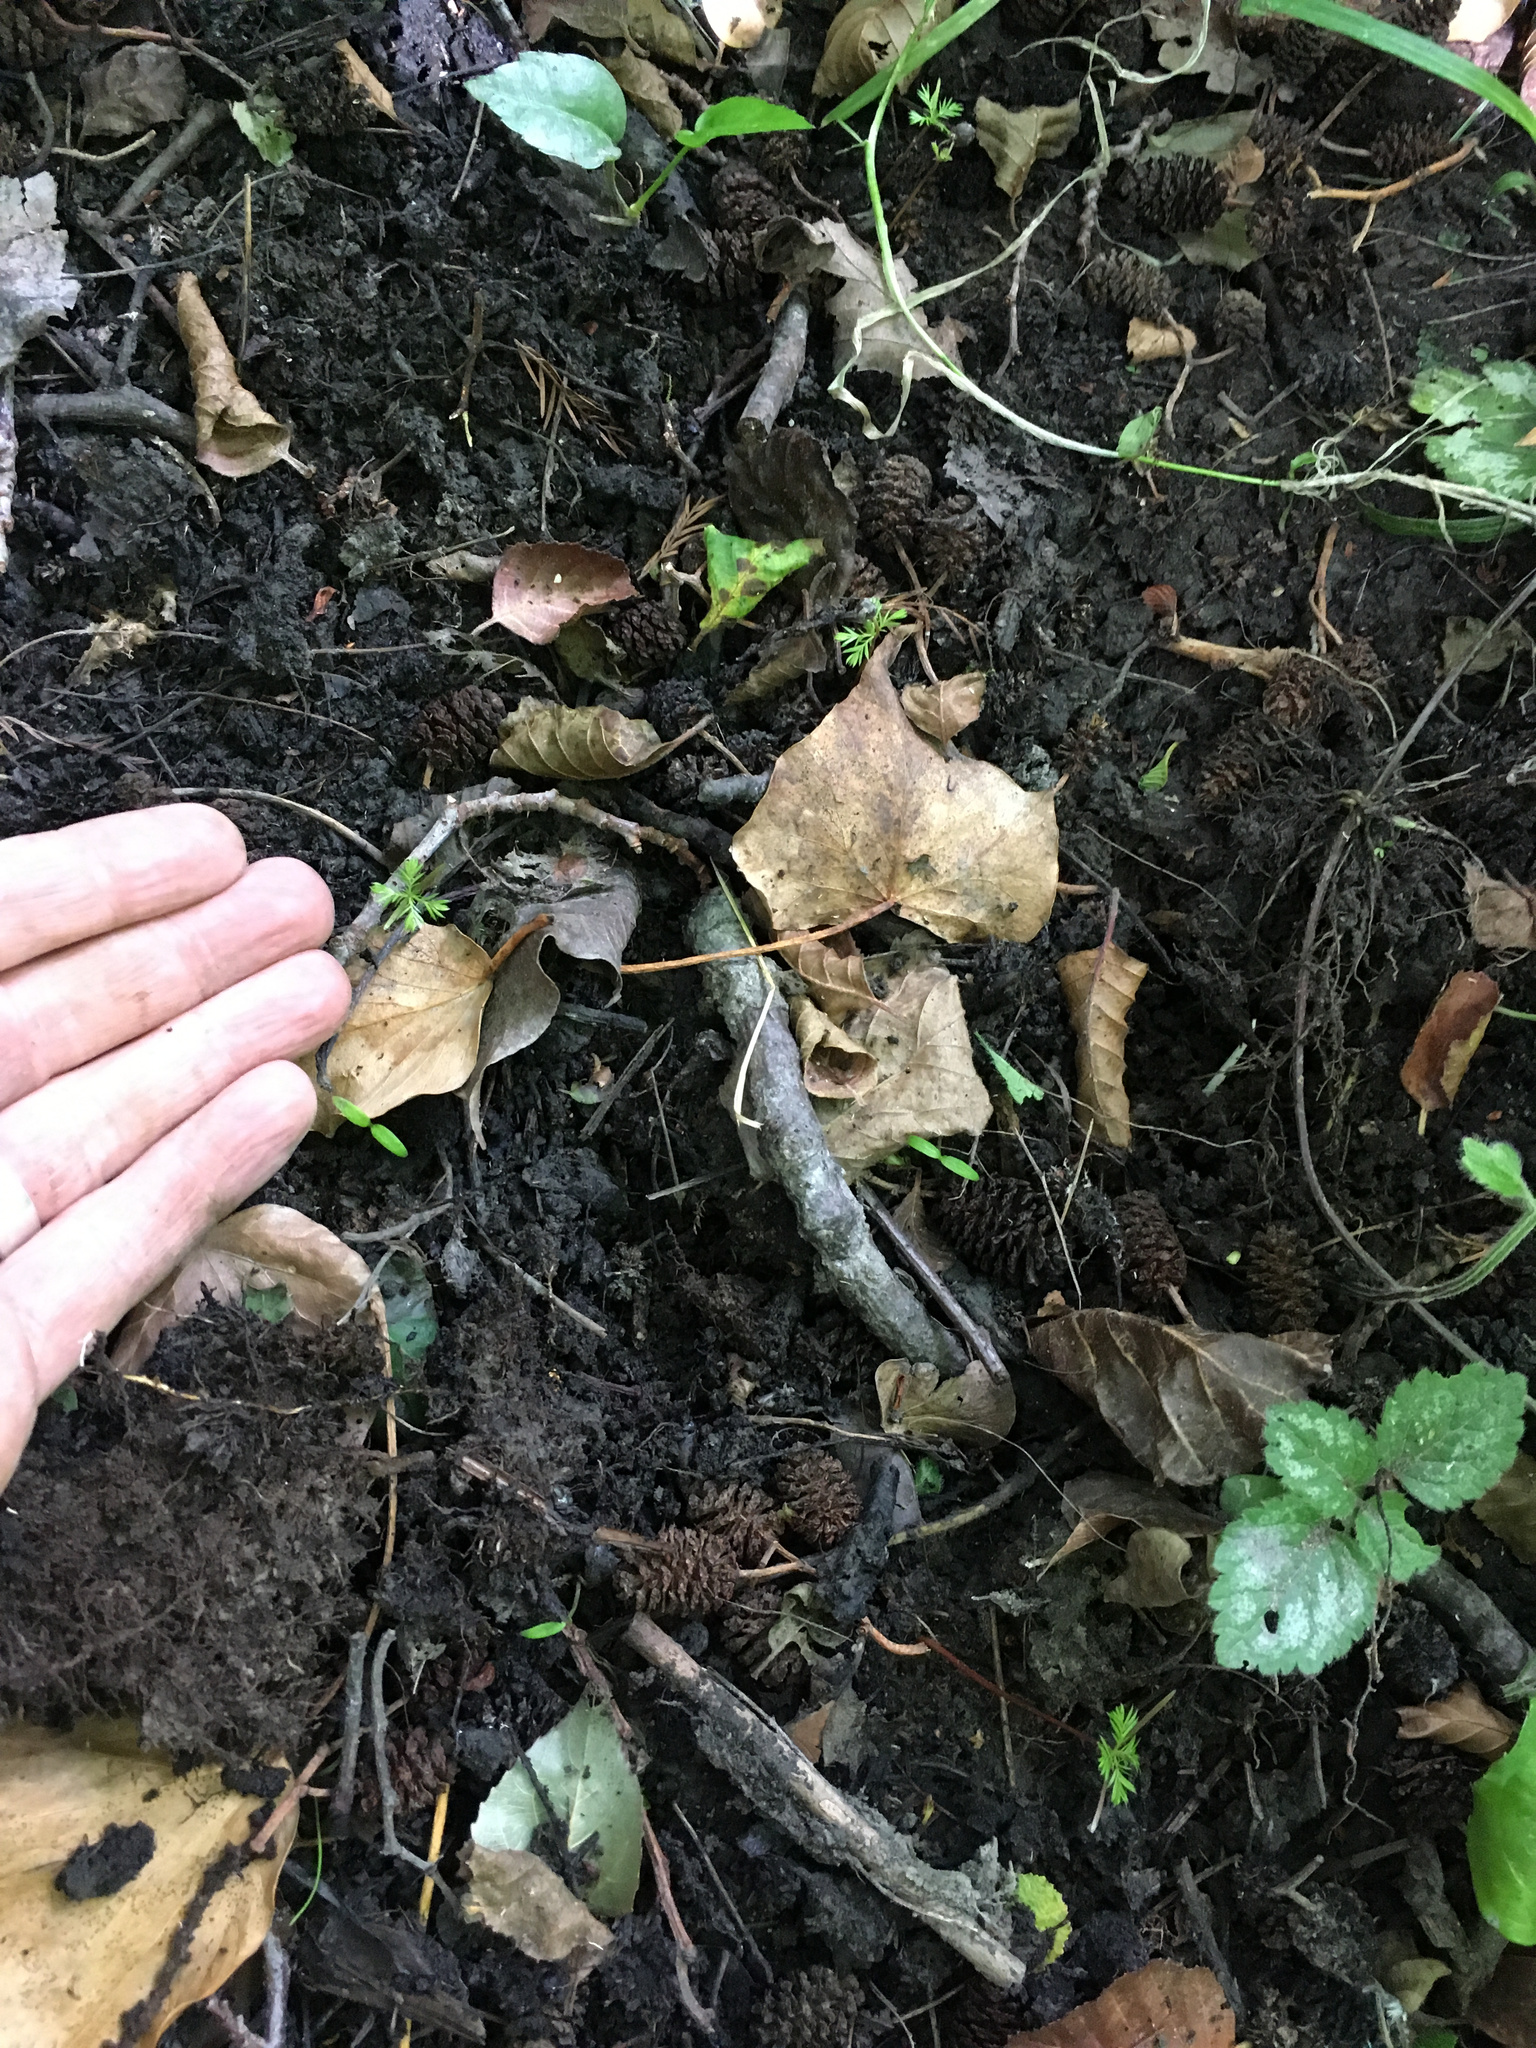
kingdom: Plantae
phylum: Tracheophyta
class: Pinopsida
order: Pinales
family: Podocarpaceae
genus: Dacrycarpus
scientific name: Dacrycarpus dacrydioides
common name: White pine
